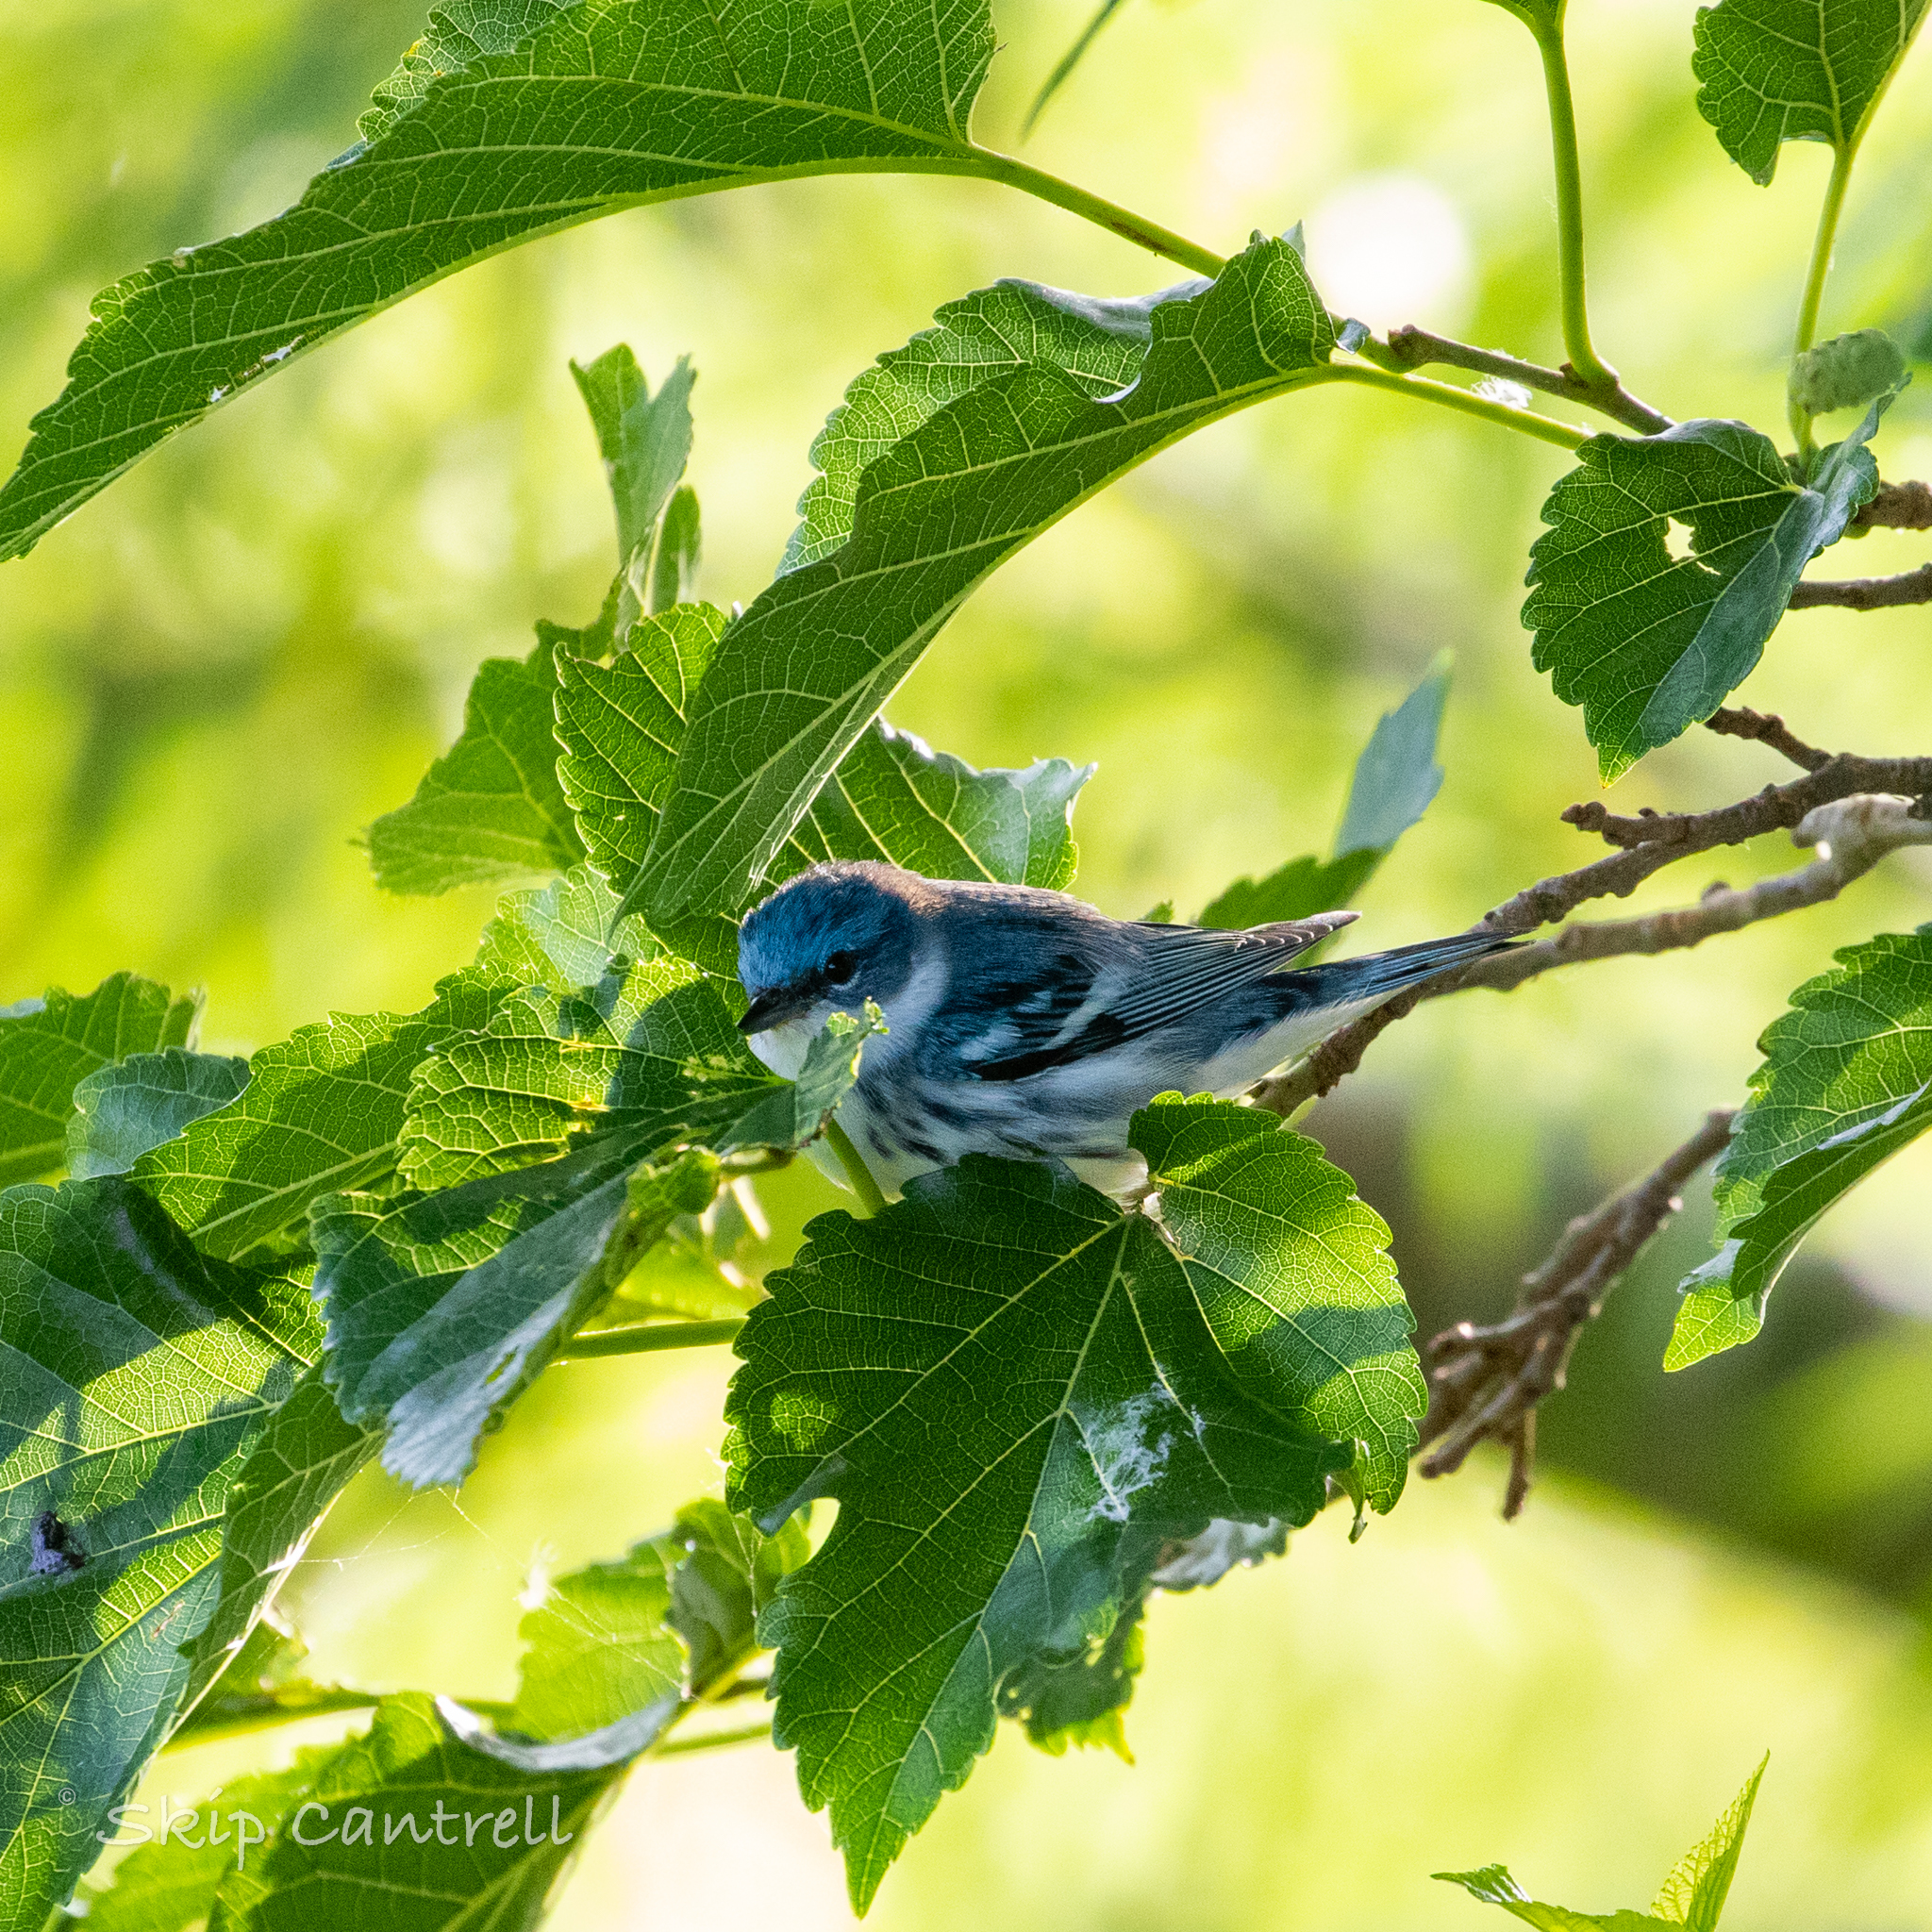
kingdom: Animalia
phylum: Chordata
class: Aves
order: Passeriformes
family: Parulidae
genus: Setophaga
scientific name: Setophaga cerulea
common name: Cerulean warbler
